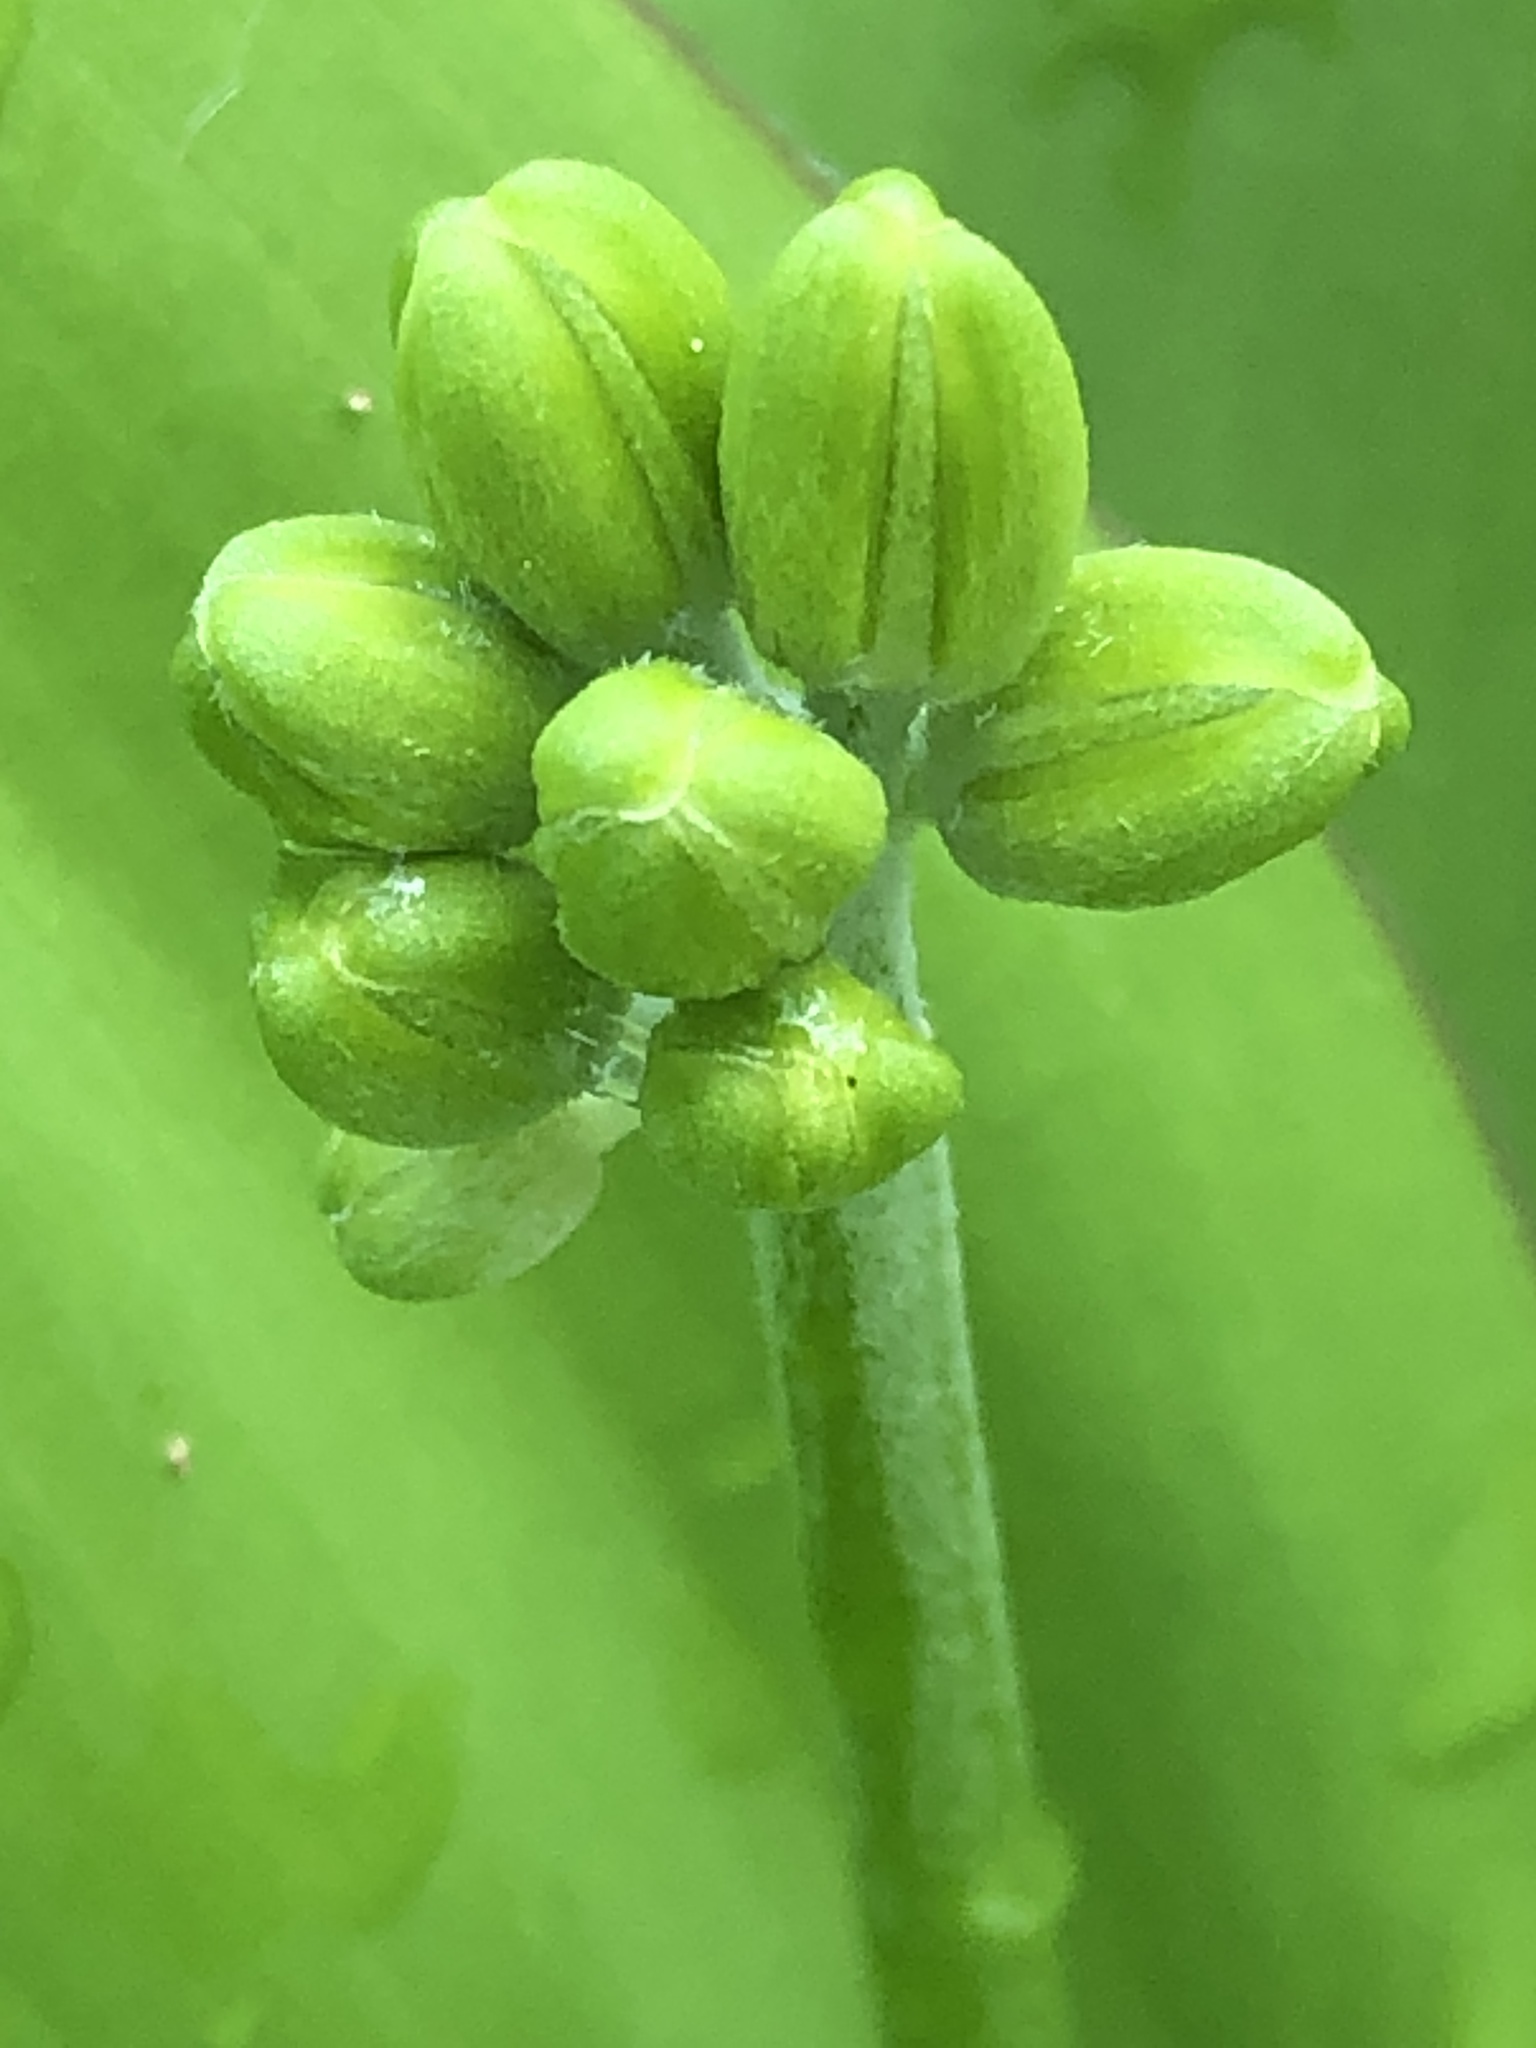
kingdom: Plantae
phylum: Tracheophyta
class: Liliopsida
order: Liliales
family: Liliaceae
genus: Clintonia
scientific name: Clintonia borealis
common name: Yellow clintonia
